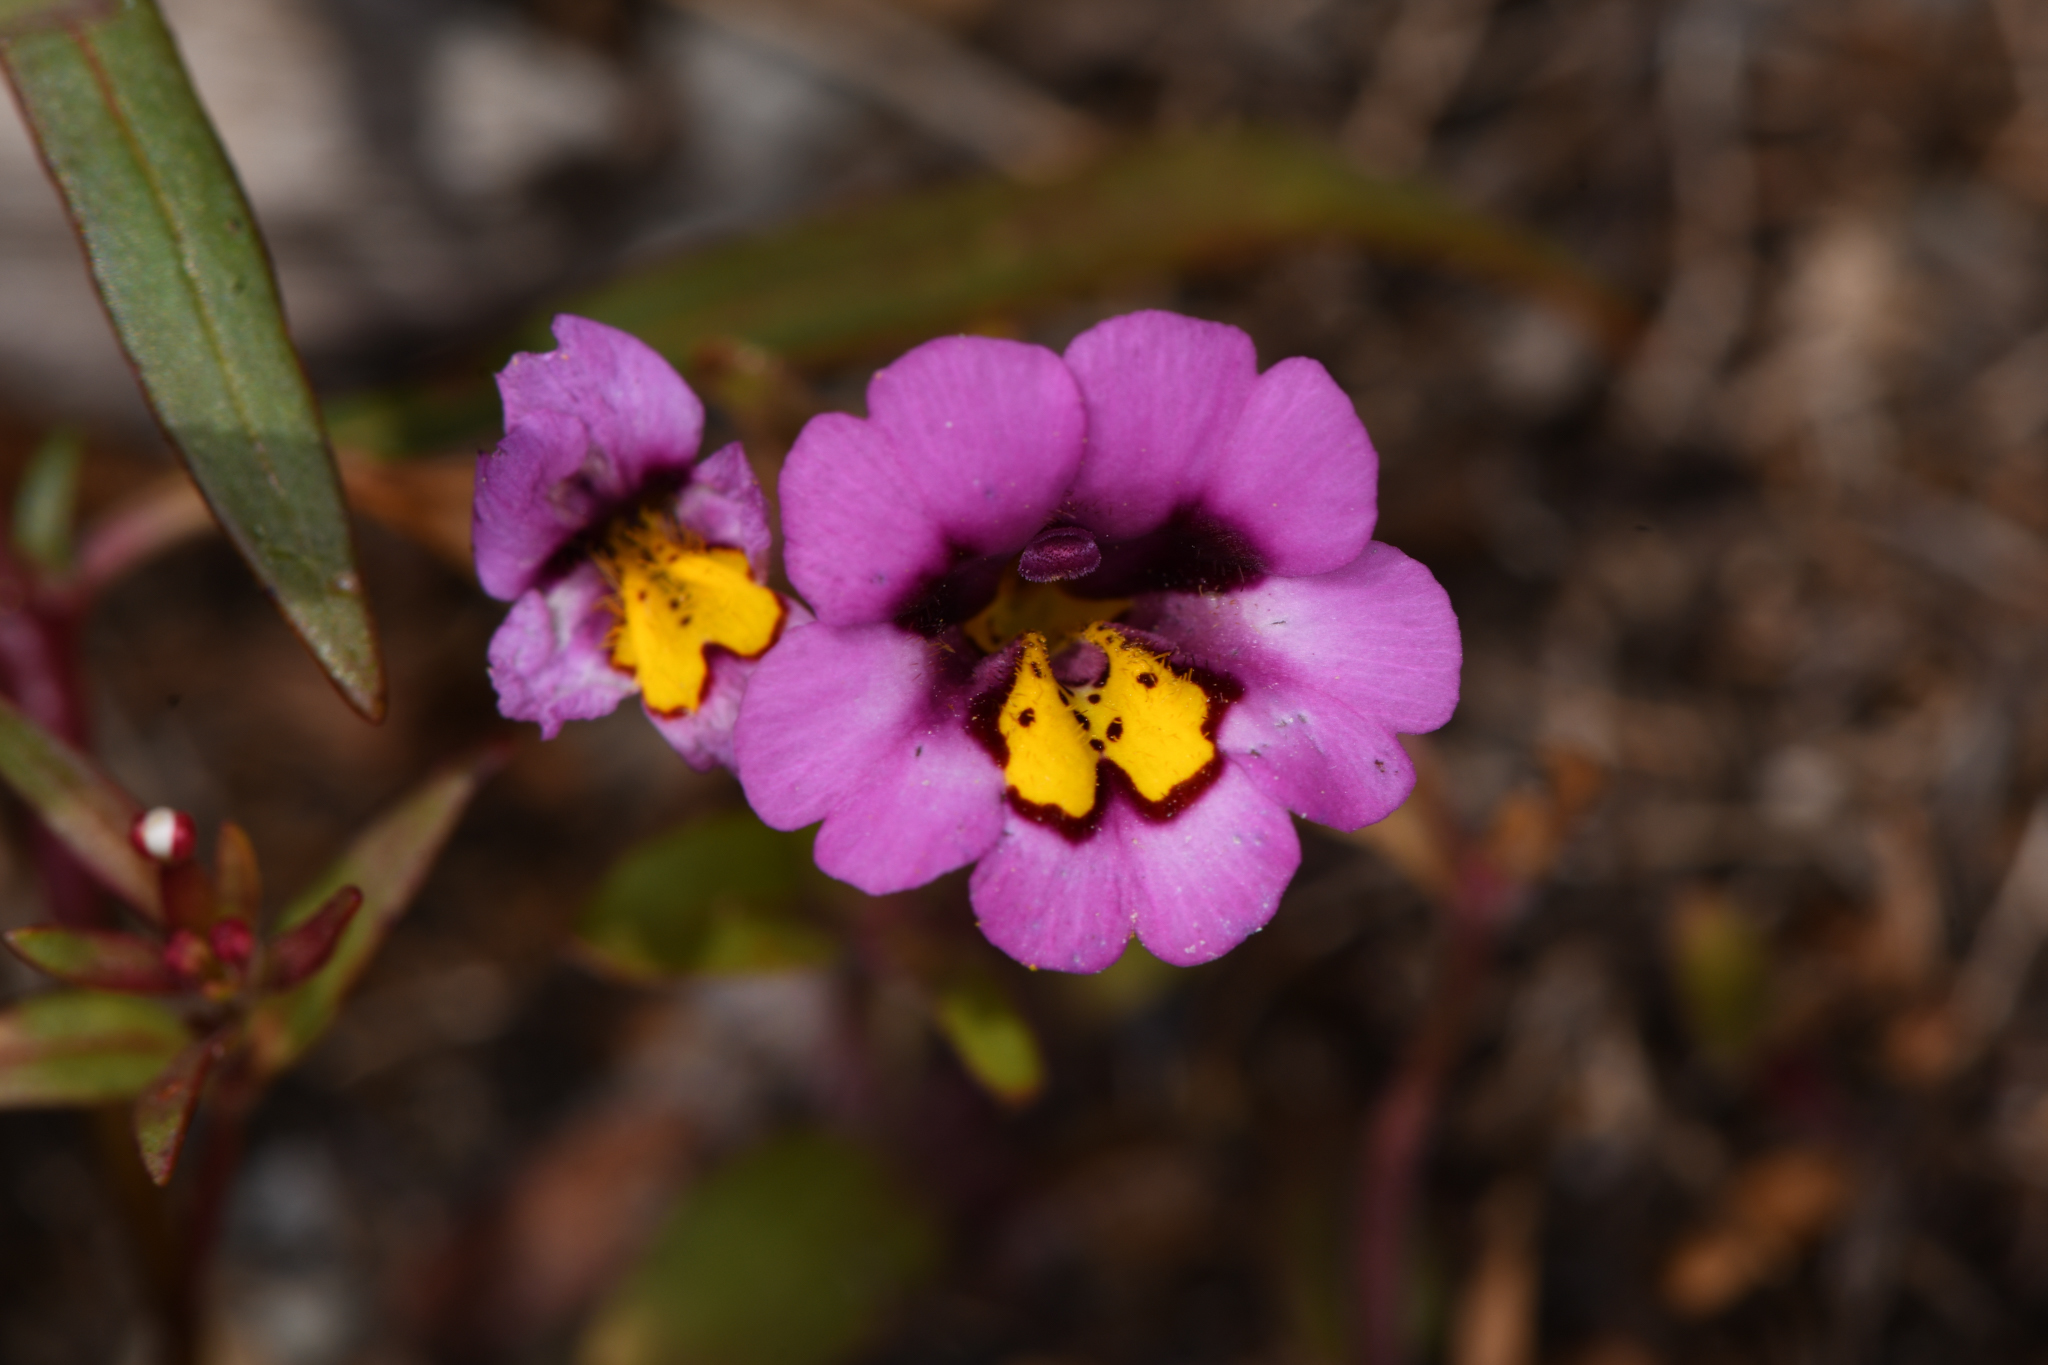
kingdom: Plantae
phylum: Tracheophyta
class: Magnoliopsida
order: Lamiales
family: Phrymaceae
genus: Erythranthe
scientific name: Erythranthe filicaulis
